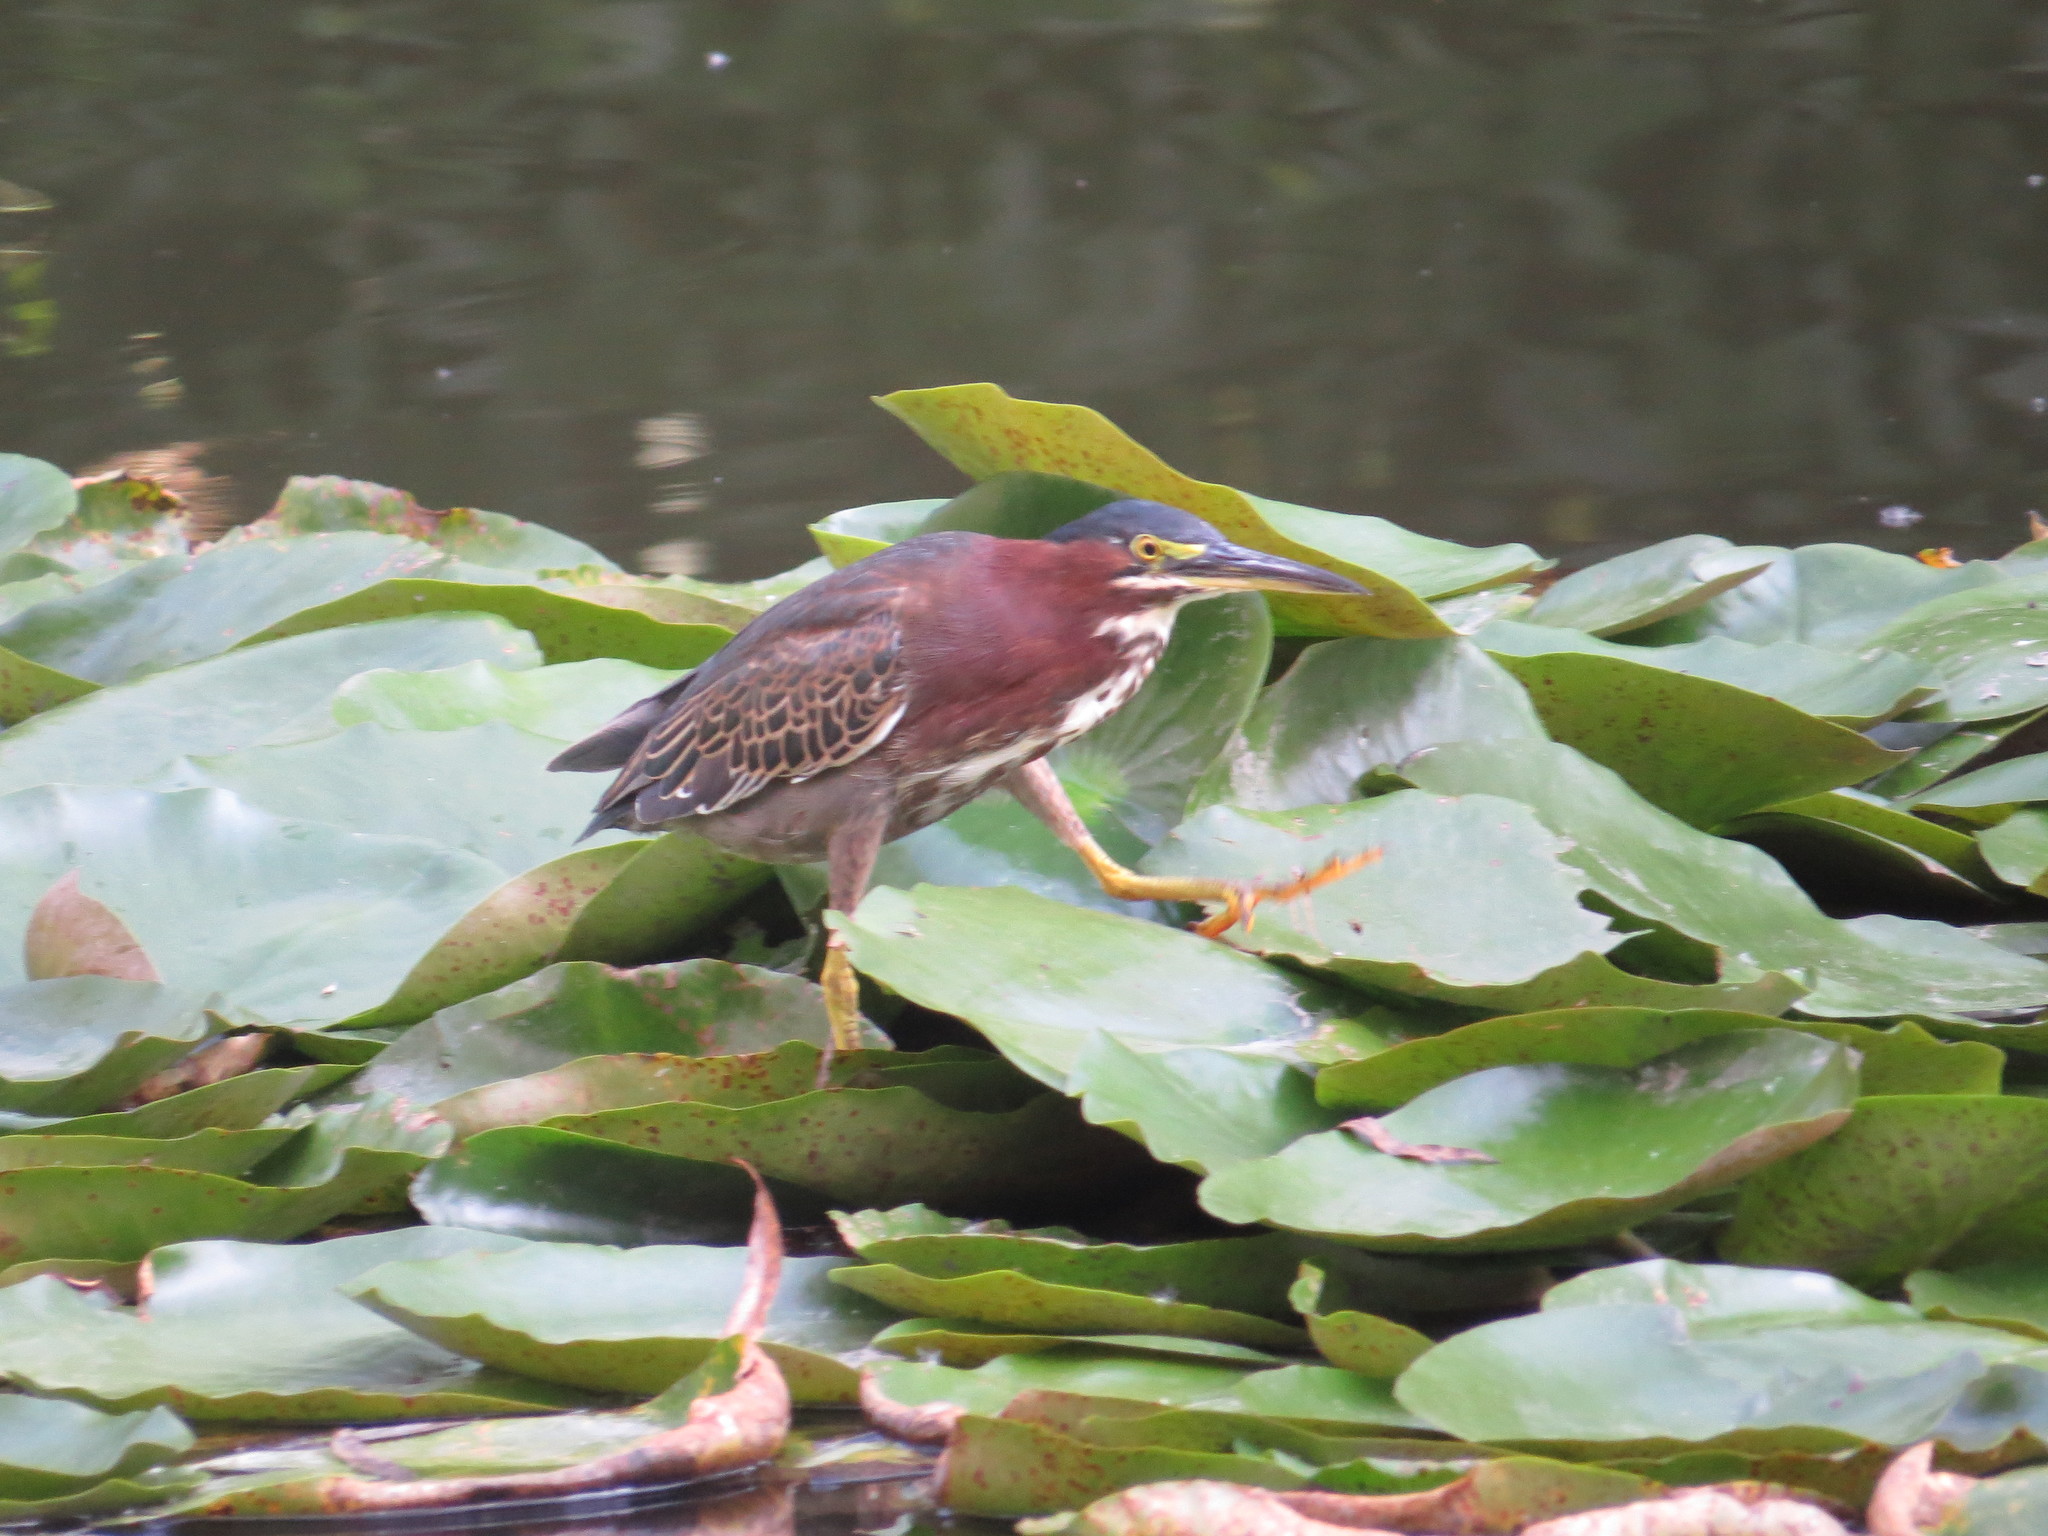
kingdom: Animalia
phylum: Chordata
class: Aves
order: Pelecaniformes
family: Ardeidae
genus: Butorides
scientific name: Butorides virescens
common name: Green heron
